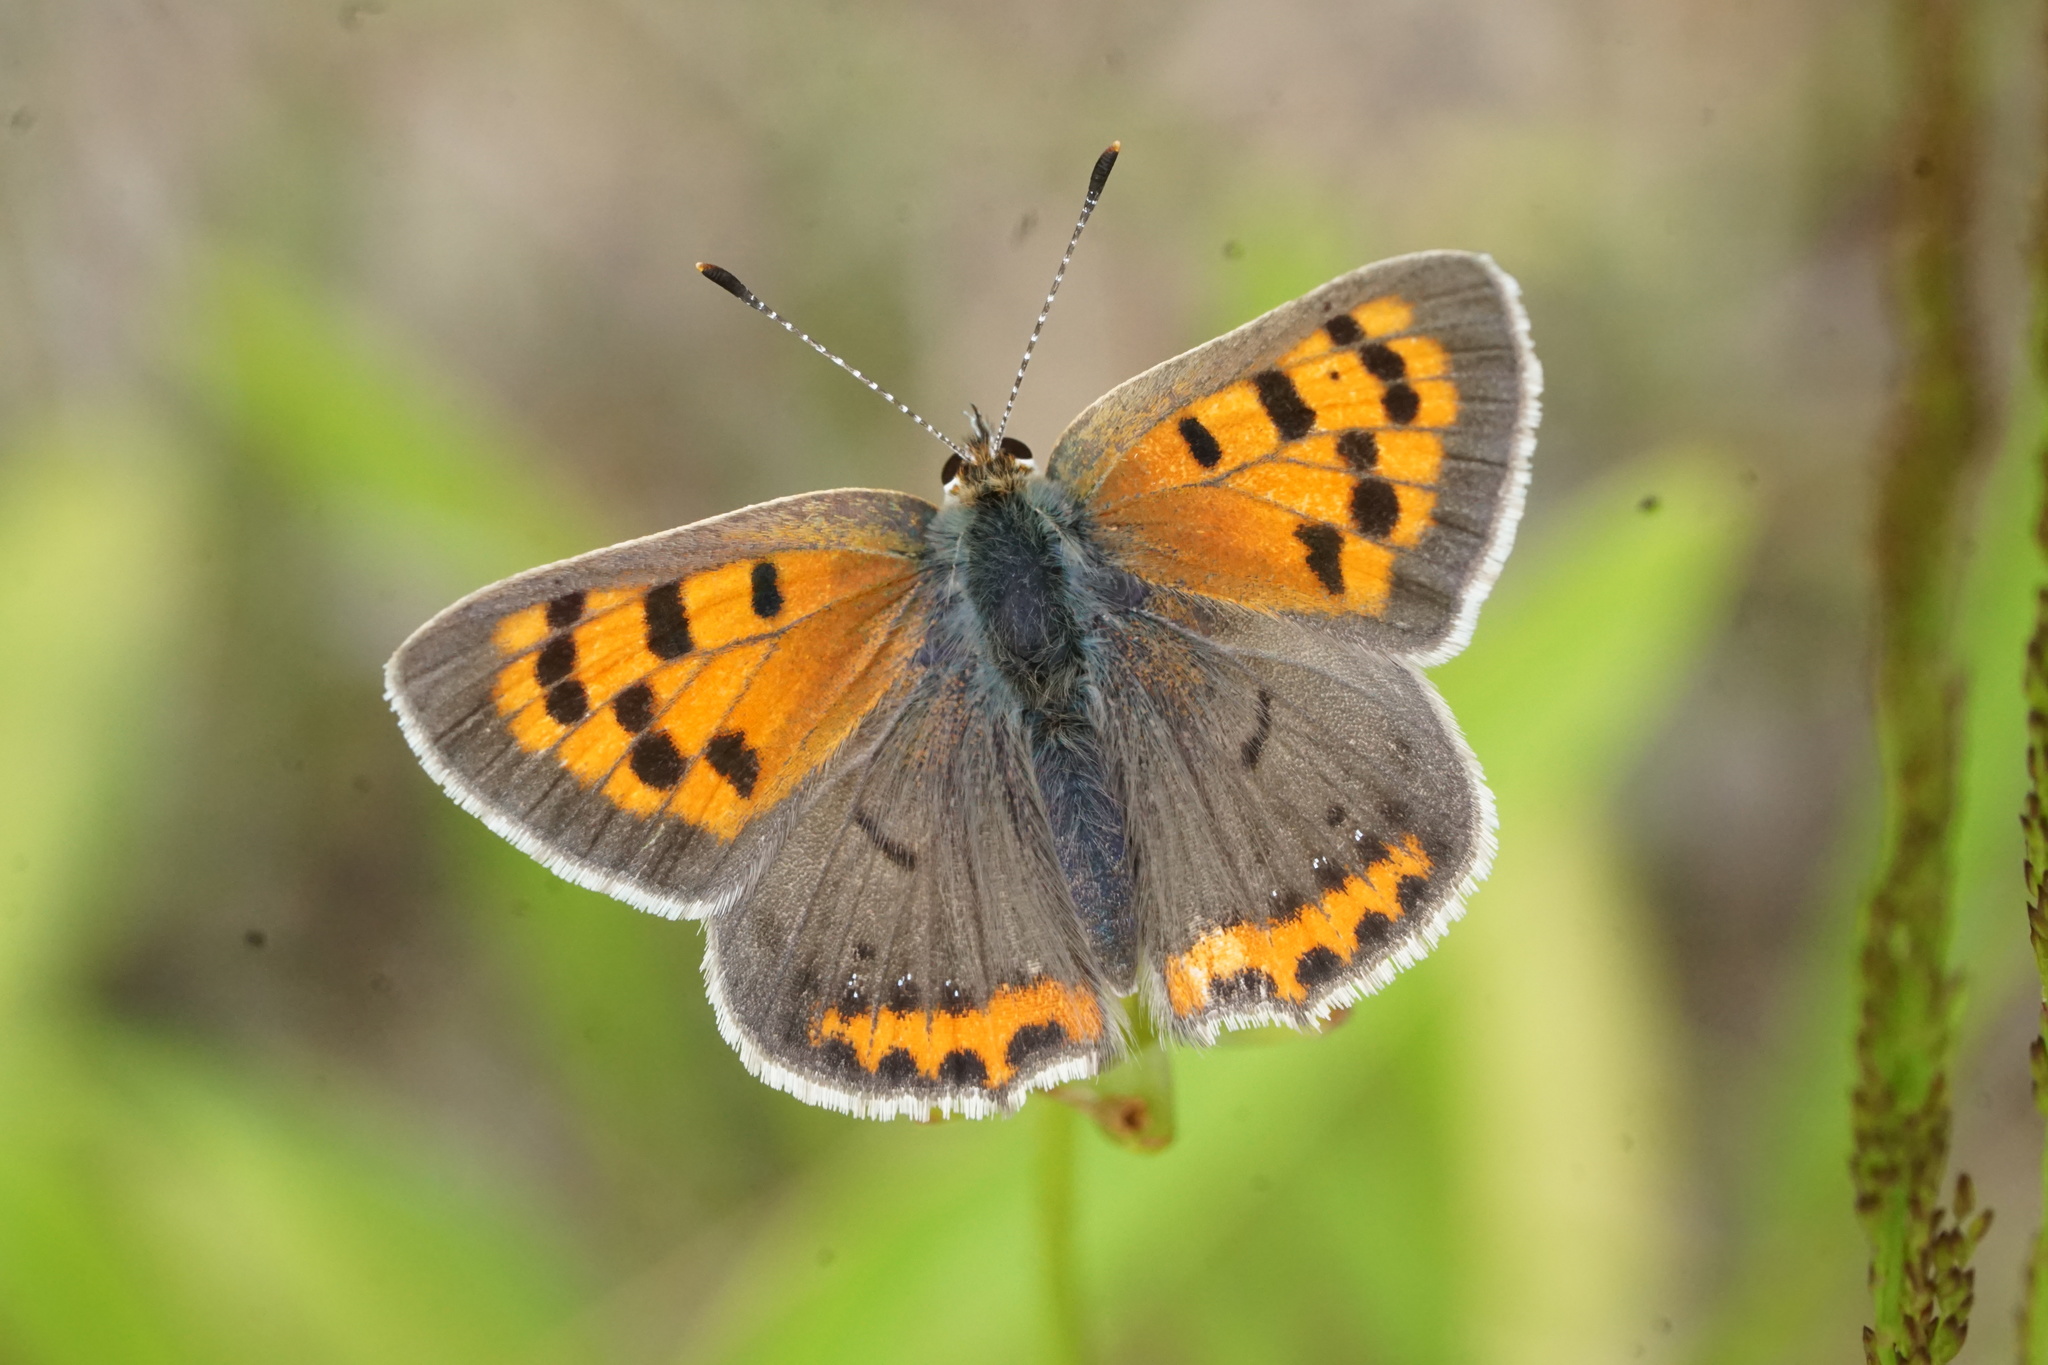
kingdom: Animalia
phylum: Arthropoda
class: Insecta
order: Lepidoptera
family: Lycaenidae
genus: Lycaena
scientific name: Lycaena hypophlaeas
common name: American copper
